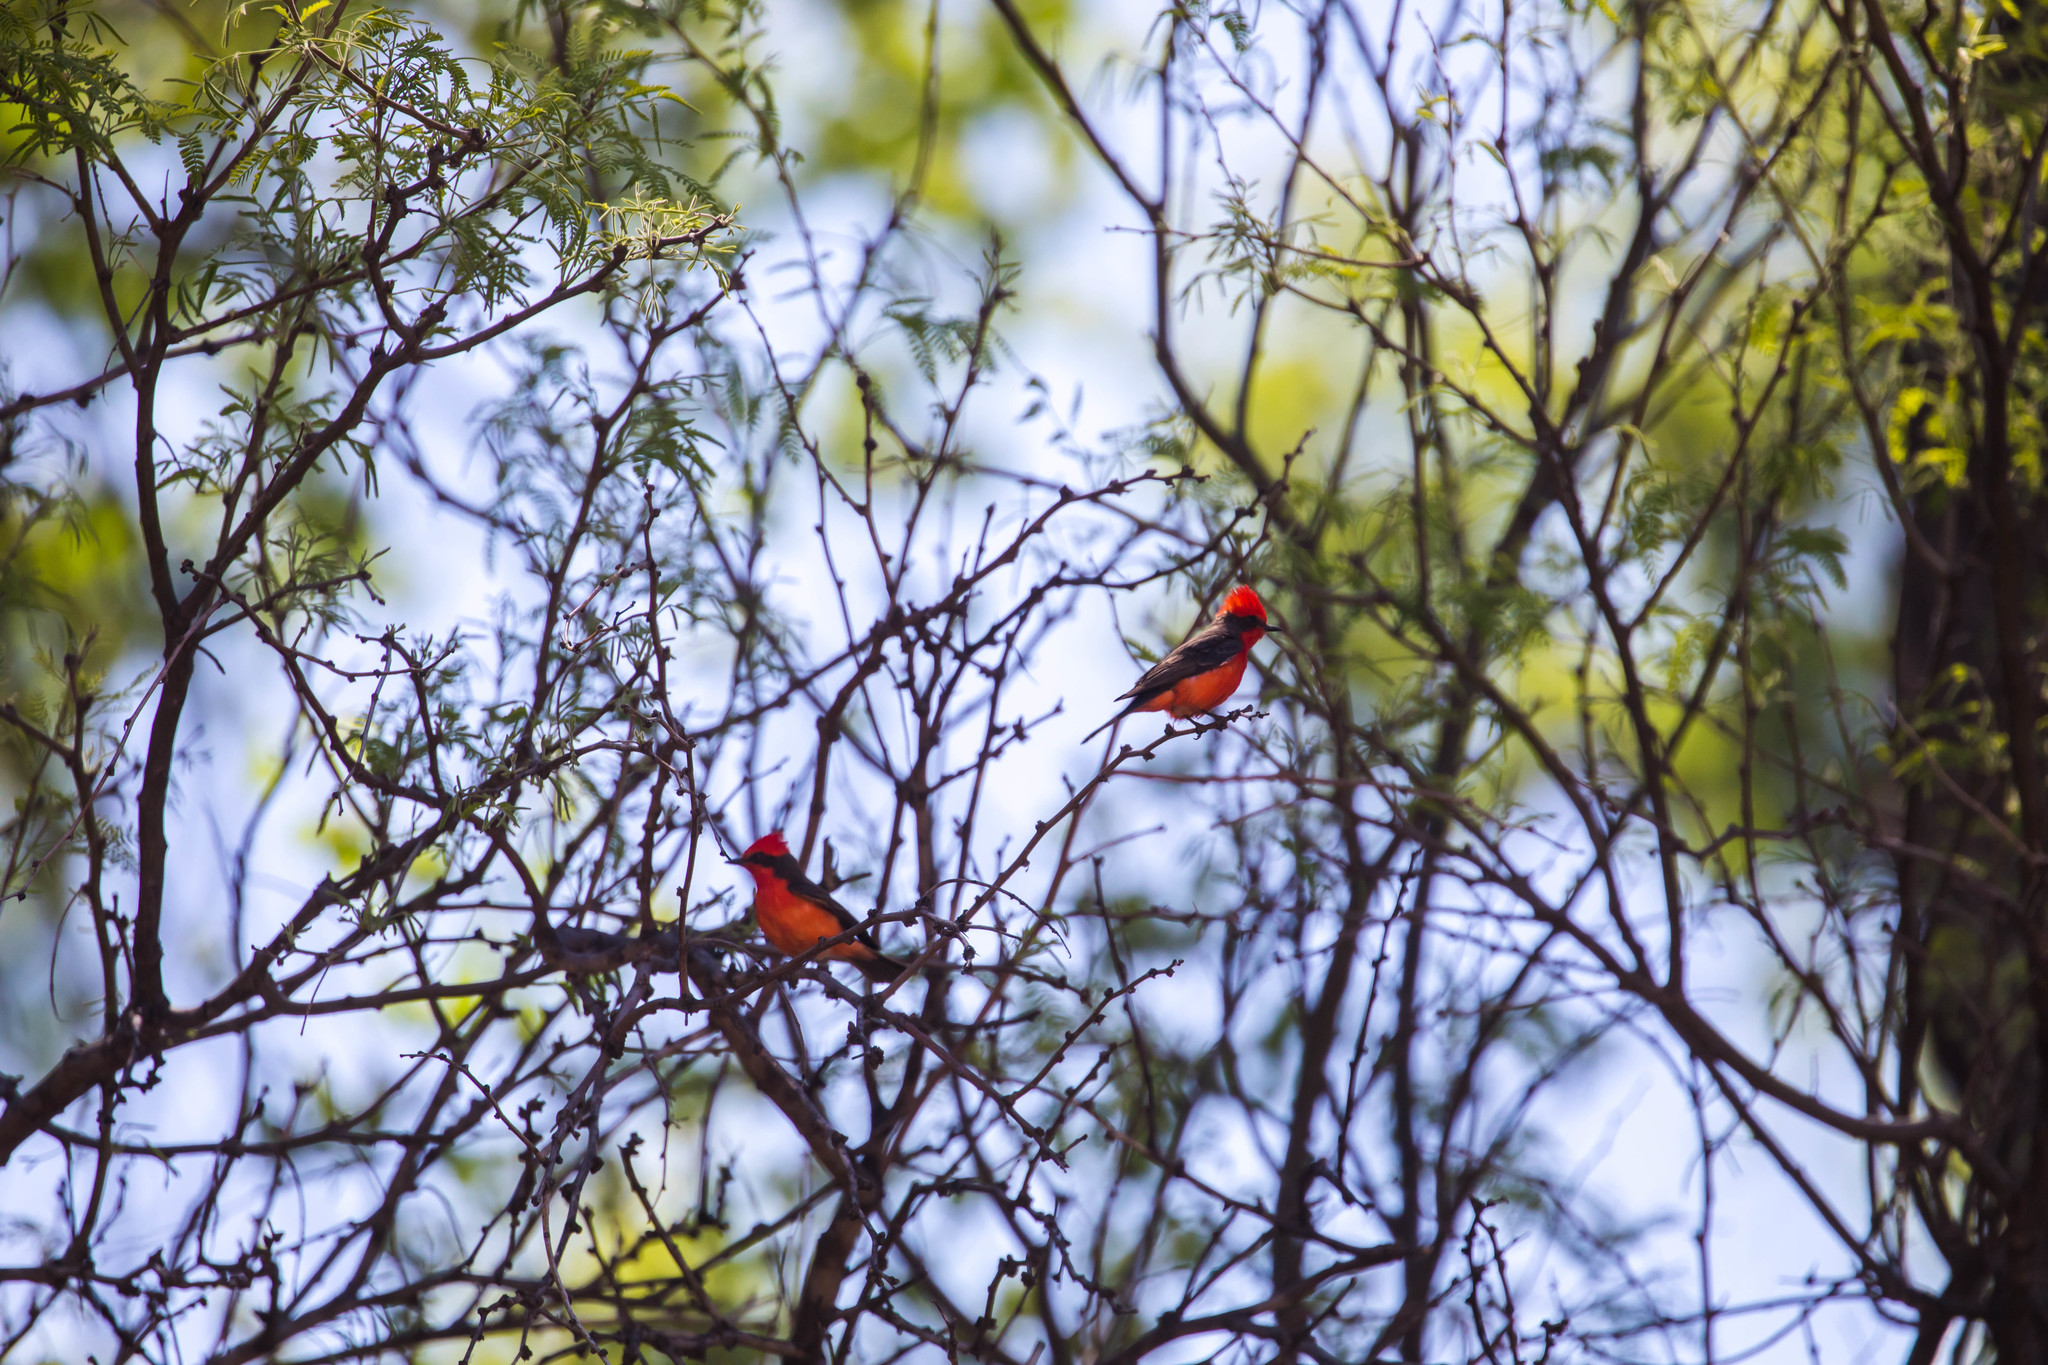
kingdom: Animalia
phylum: Chordata
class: Aves
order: Passeriformes
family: Tyrannidae
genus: Pyrocephalus
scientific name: Pyrocephalus rubinus
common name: Vermilion flycatcher
